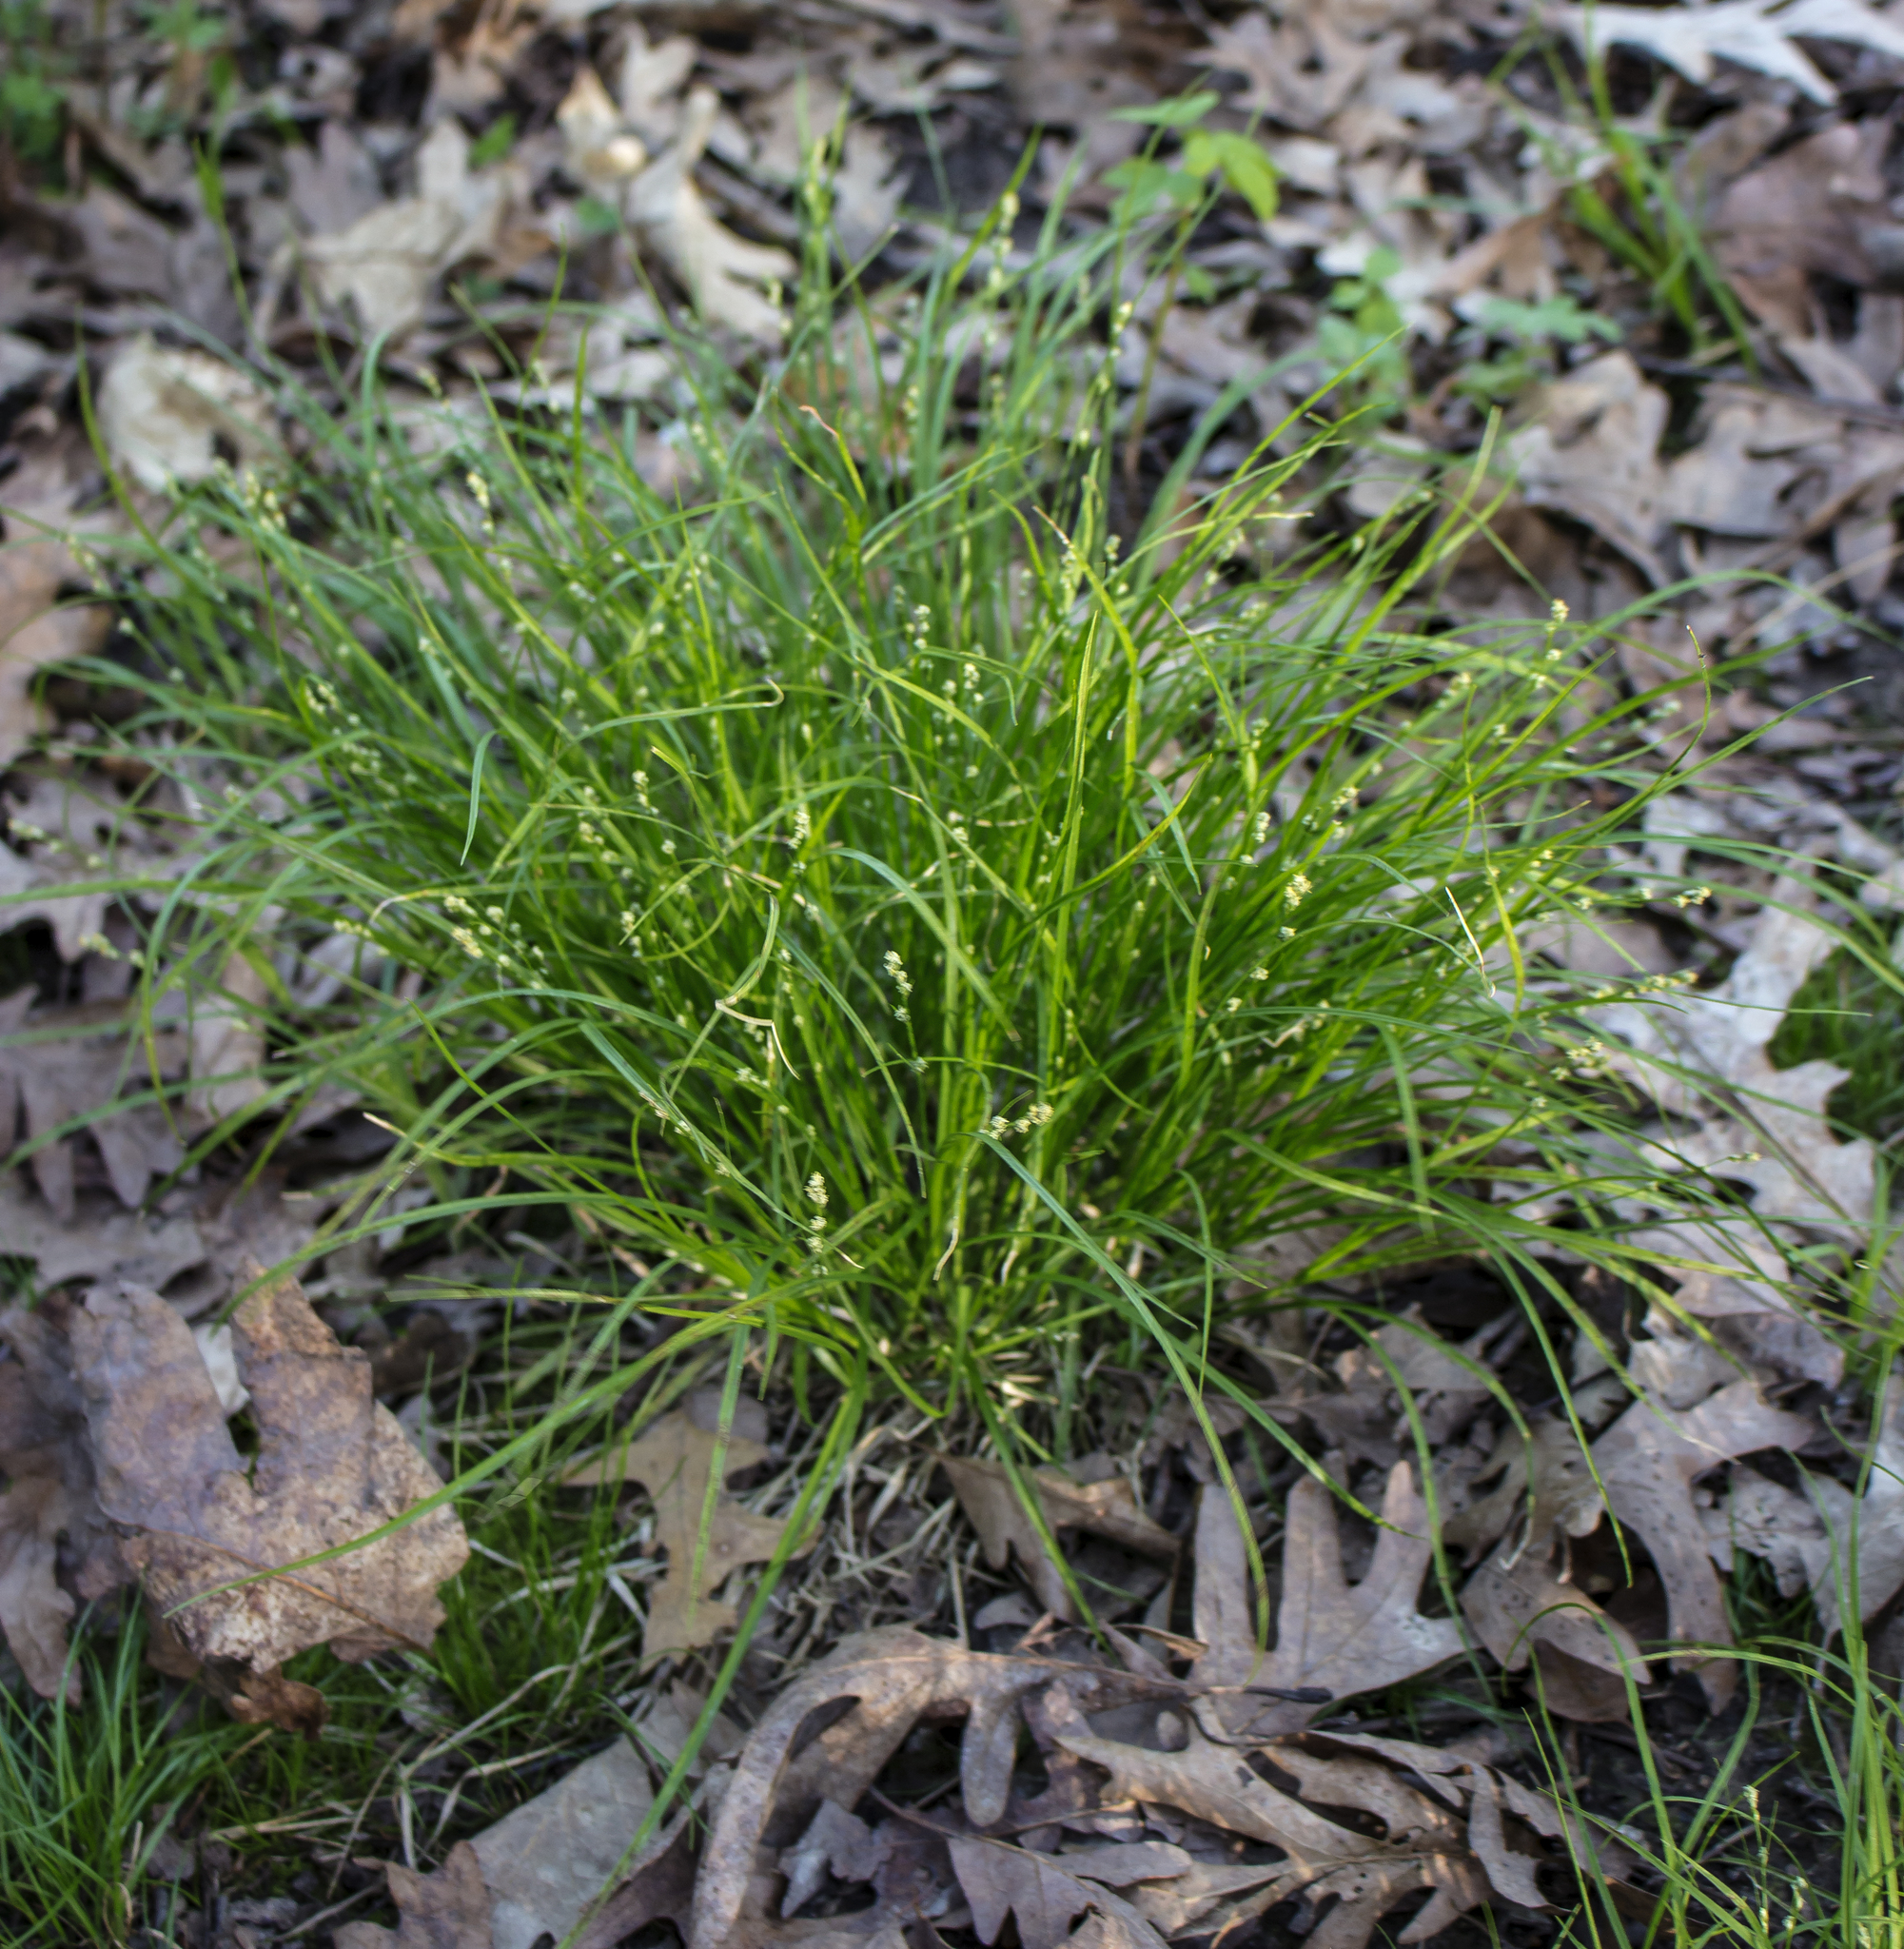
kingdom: Plantae
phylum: Tracheophyta
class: Liliopsida
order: Poales
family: Cyperaceae
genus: Carex
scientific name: Carex radiata
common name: Eastern star sedge
